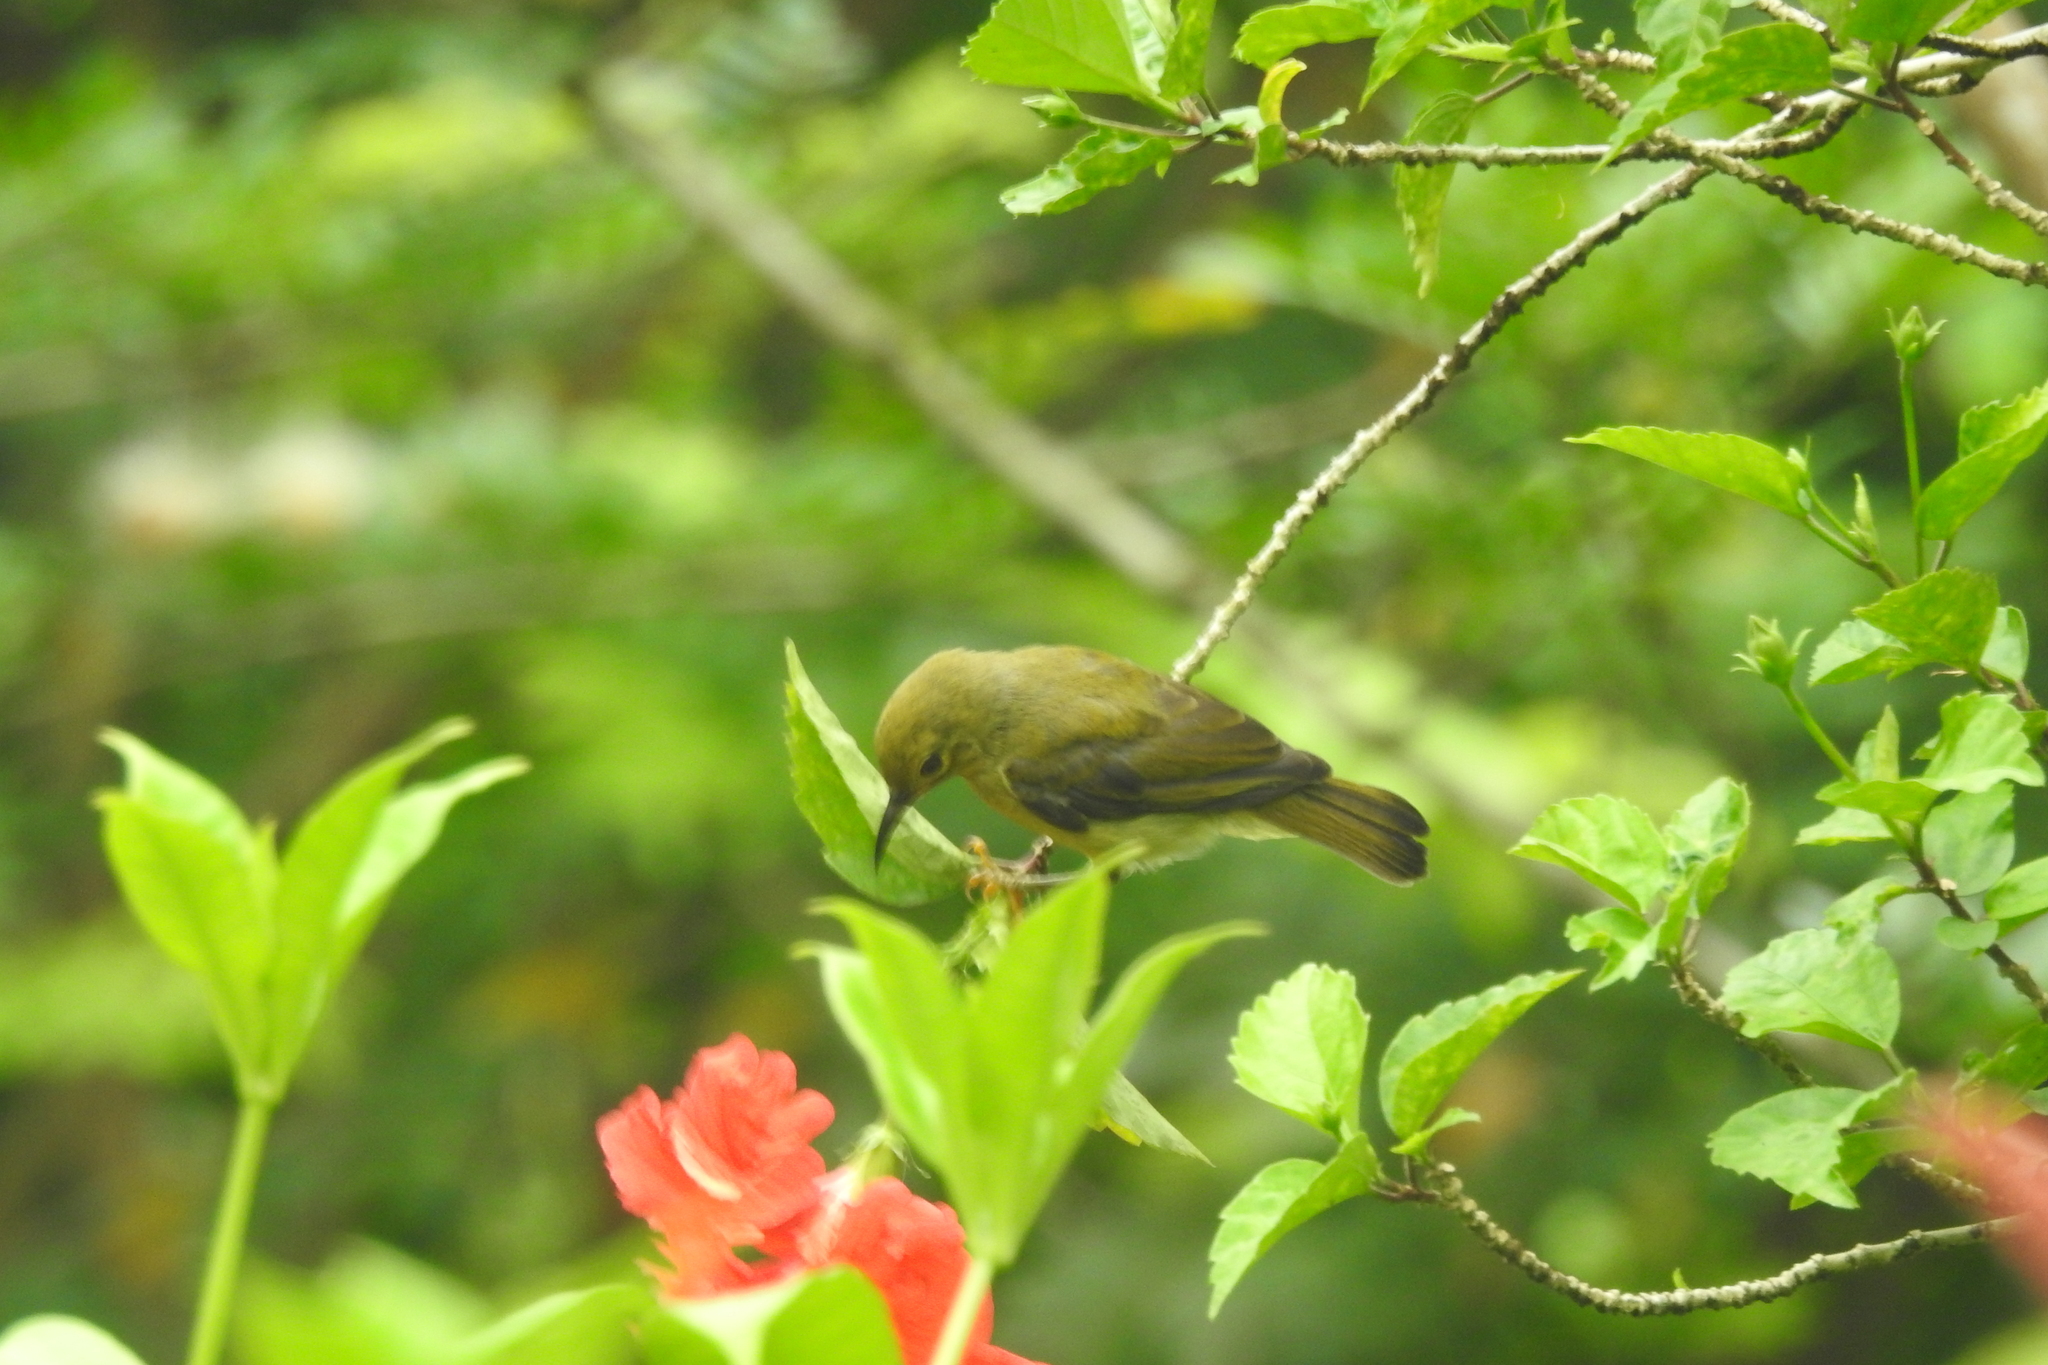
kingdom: Animalia
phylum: Chordata
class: Aves
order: Passeriformes
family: Nectariniidae
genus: Anthreptes
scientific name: Anthreptes malacensis
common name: Brown-throated sunbird
